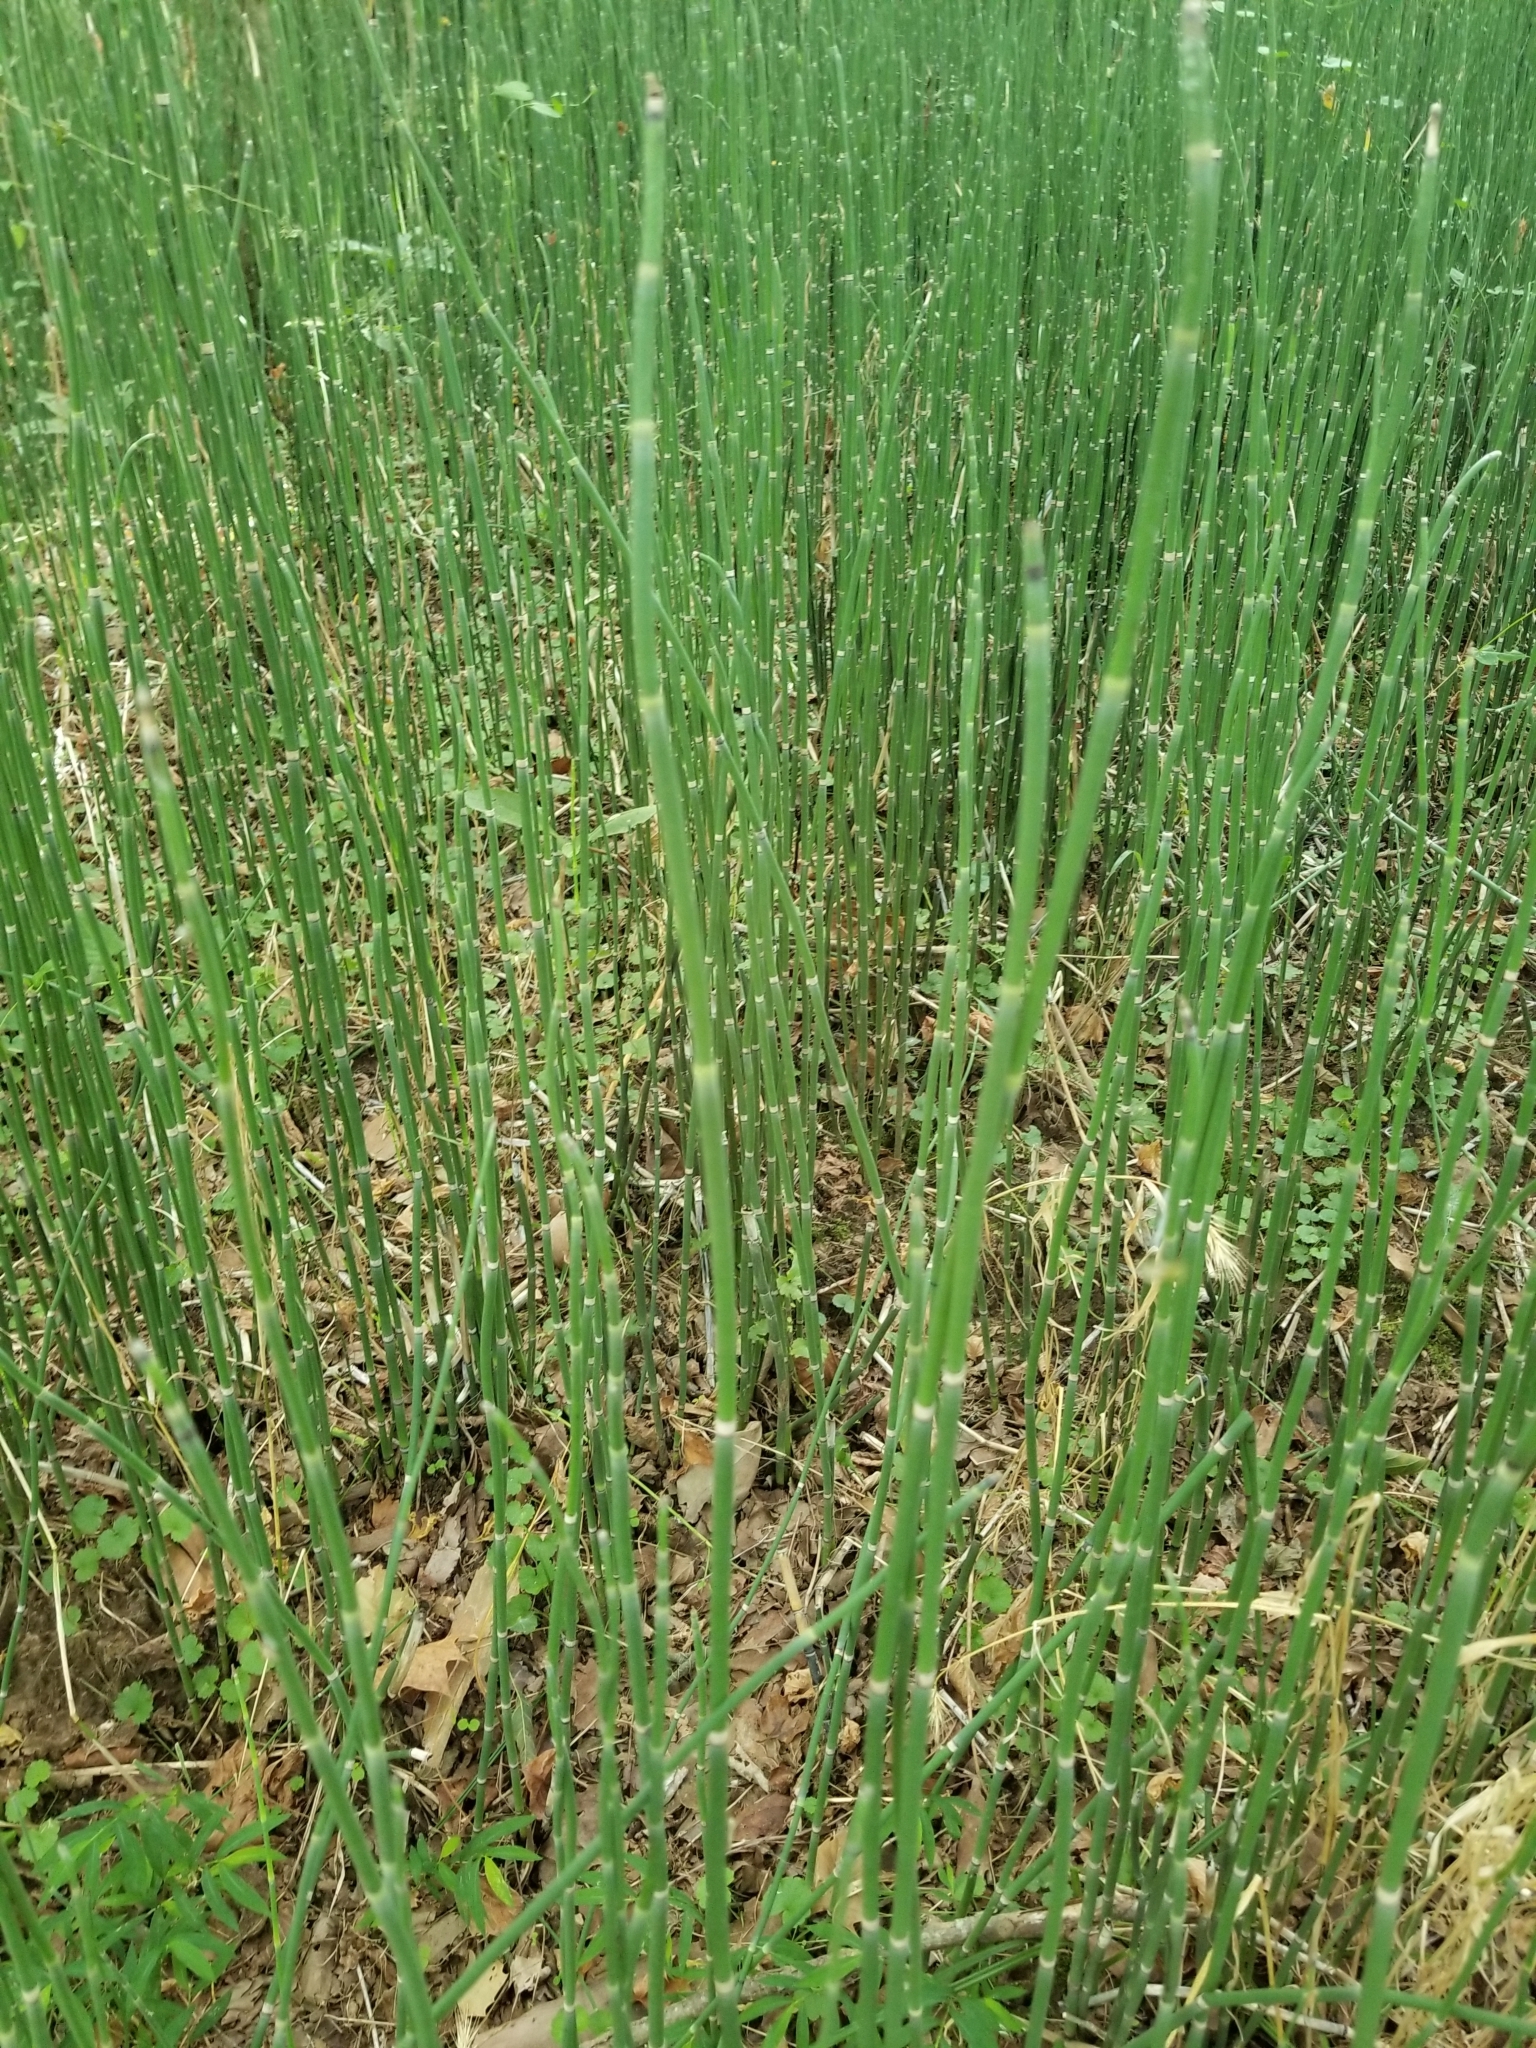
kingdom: Plantae
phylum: Tracheophyta
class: Polypodiopsida
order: Equisetales
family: Equisetaceae
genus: Equisetum
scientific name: Equisetum hyemale
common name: Rough horsetail
